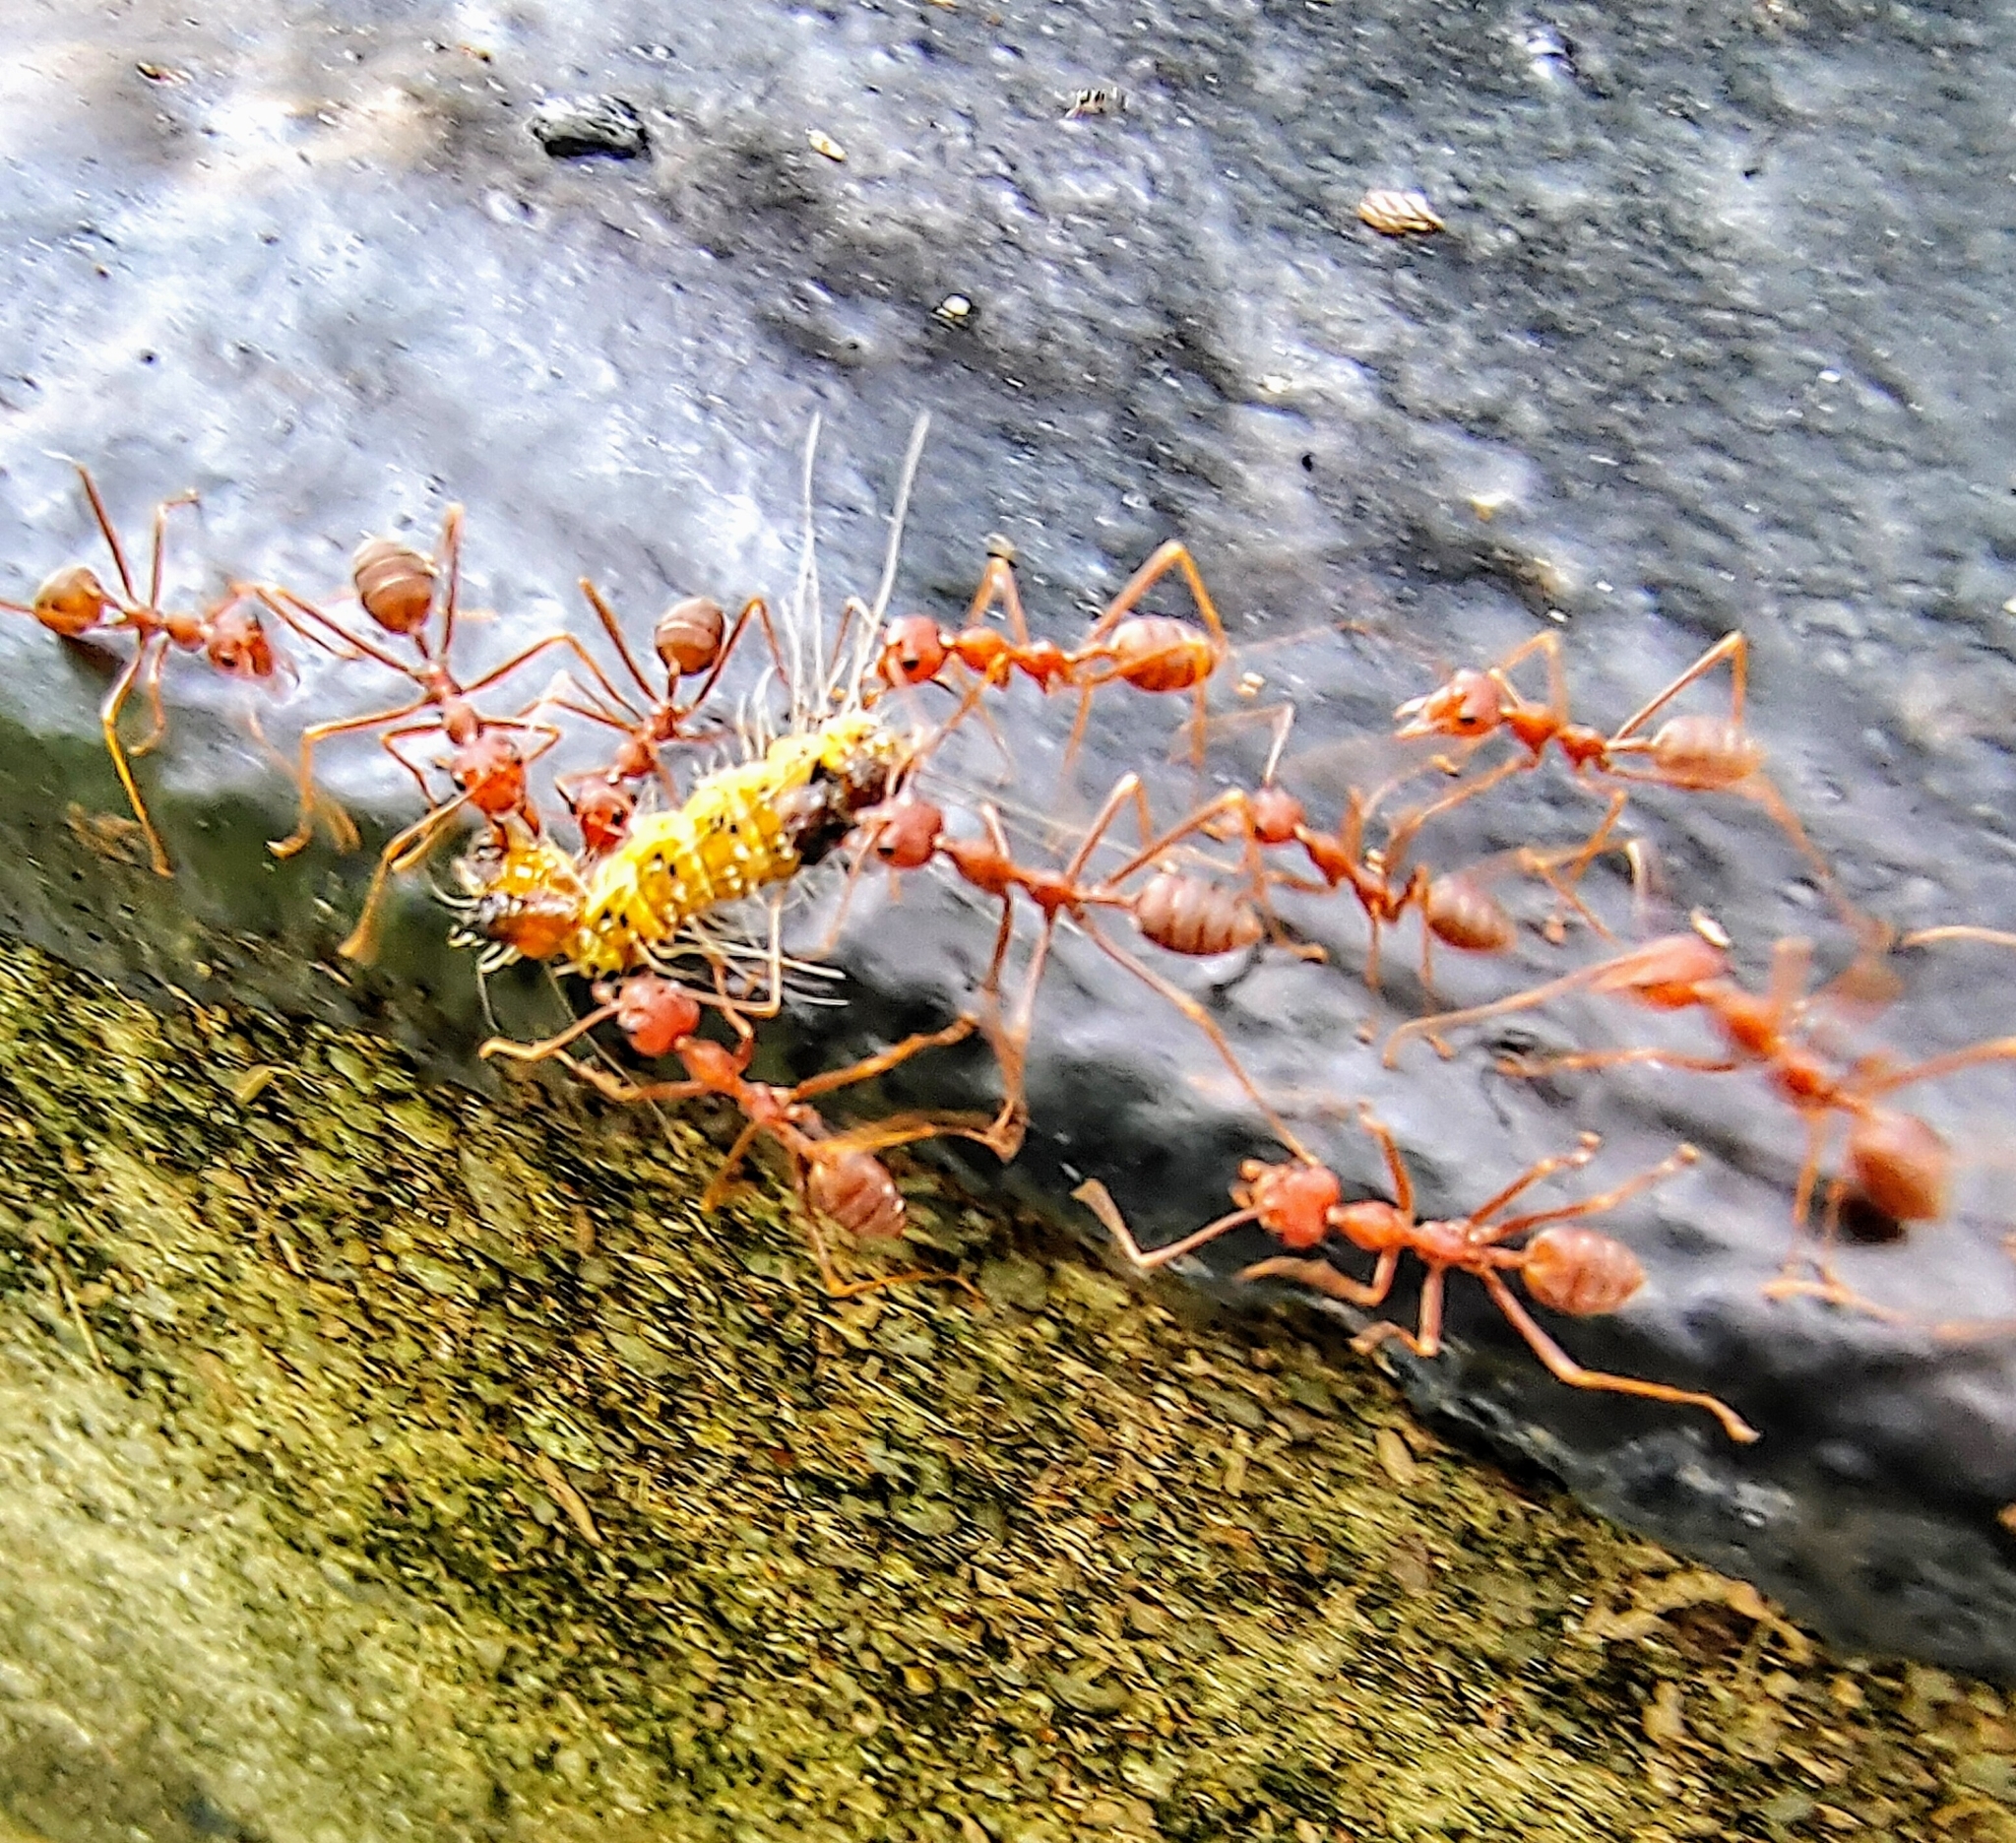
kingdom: Animalia
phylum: Arthropoda
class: Insecta
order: Hymenoptera
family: Formicidae
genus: Oecophylla
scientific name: Oecophylla smaragdina
